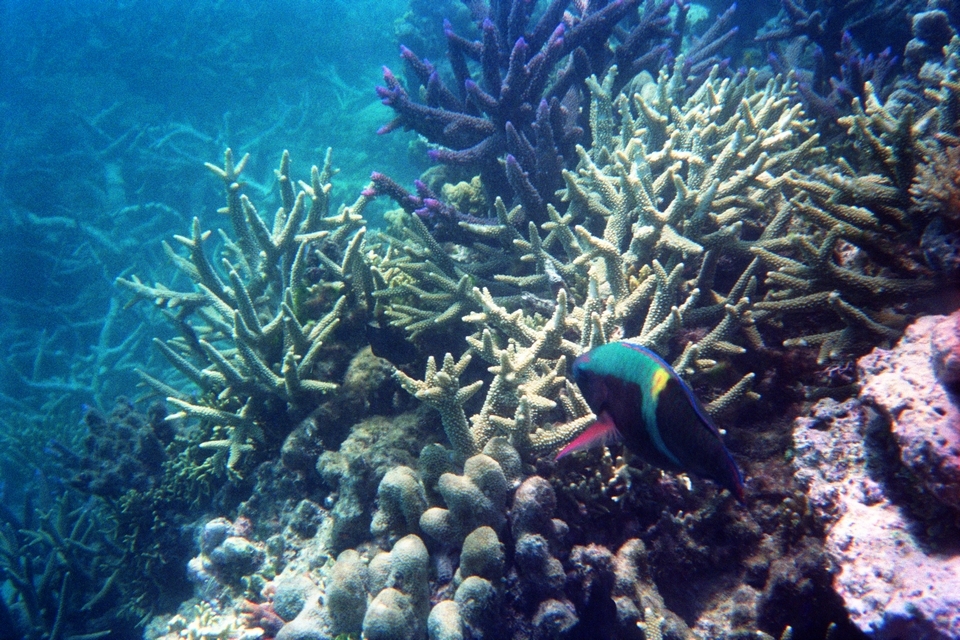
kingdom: Animalia
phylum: Chordata
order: Perciformes
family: Scaridae
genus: Scarus
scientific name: Scarus schlegeli
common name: Schlegel's parrotfish
